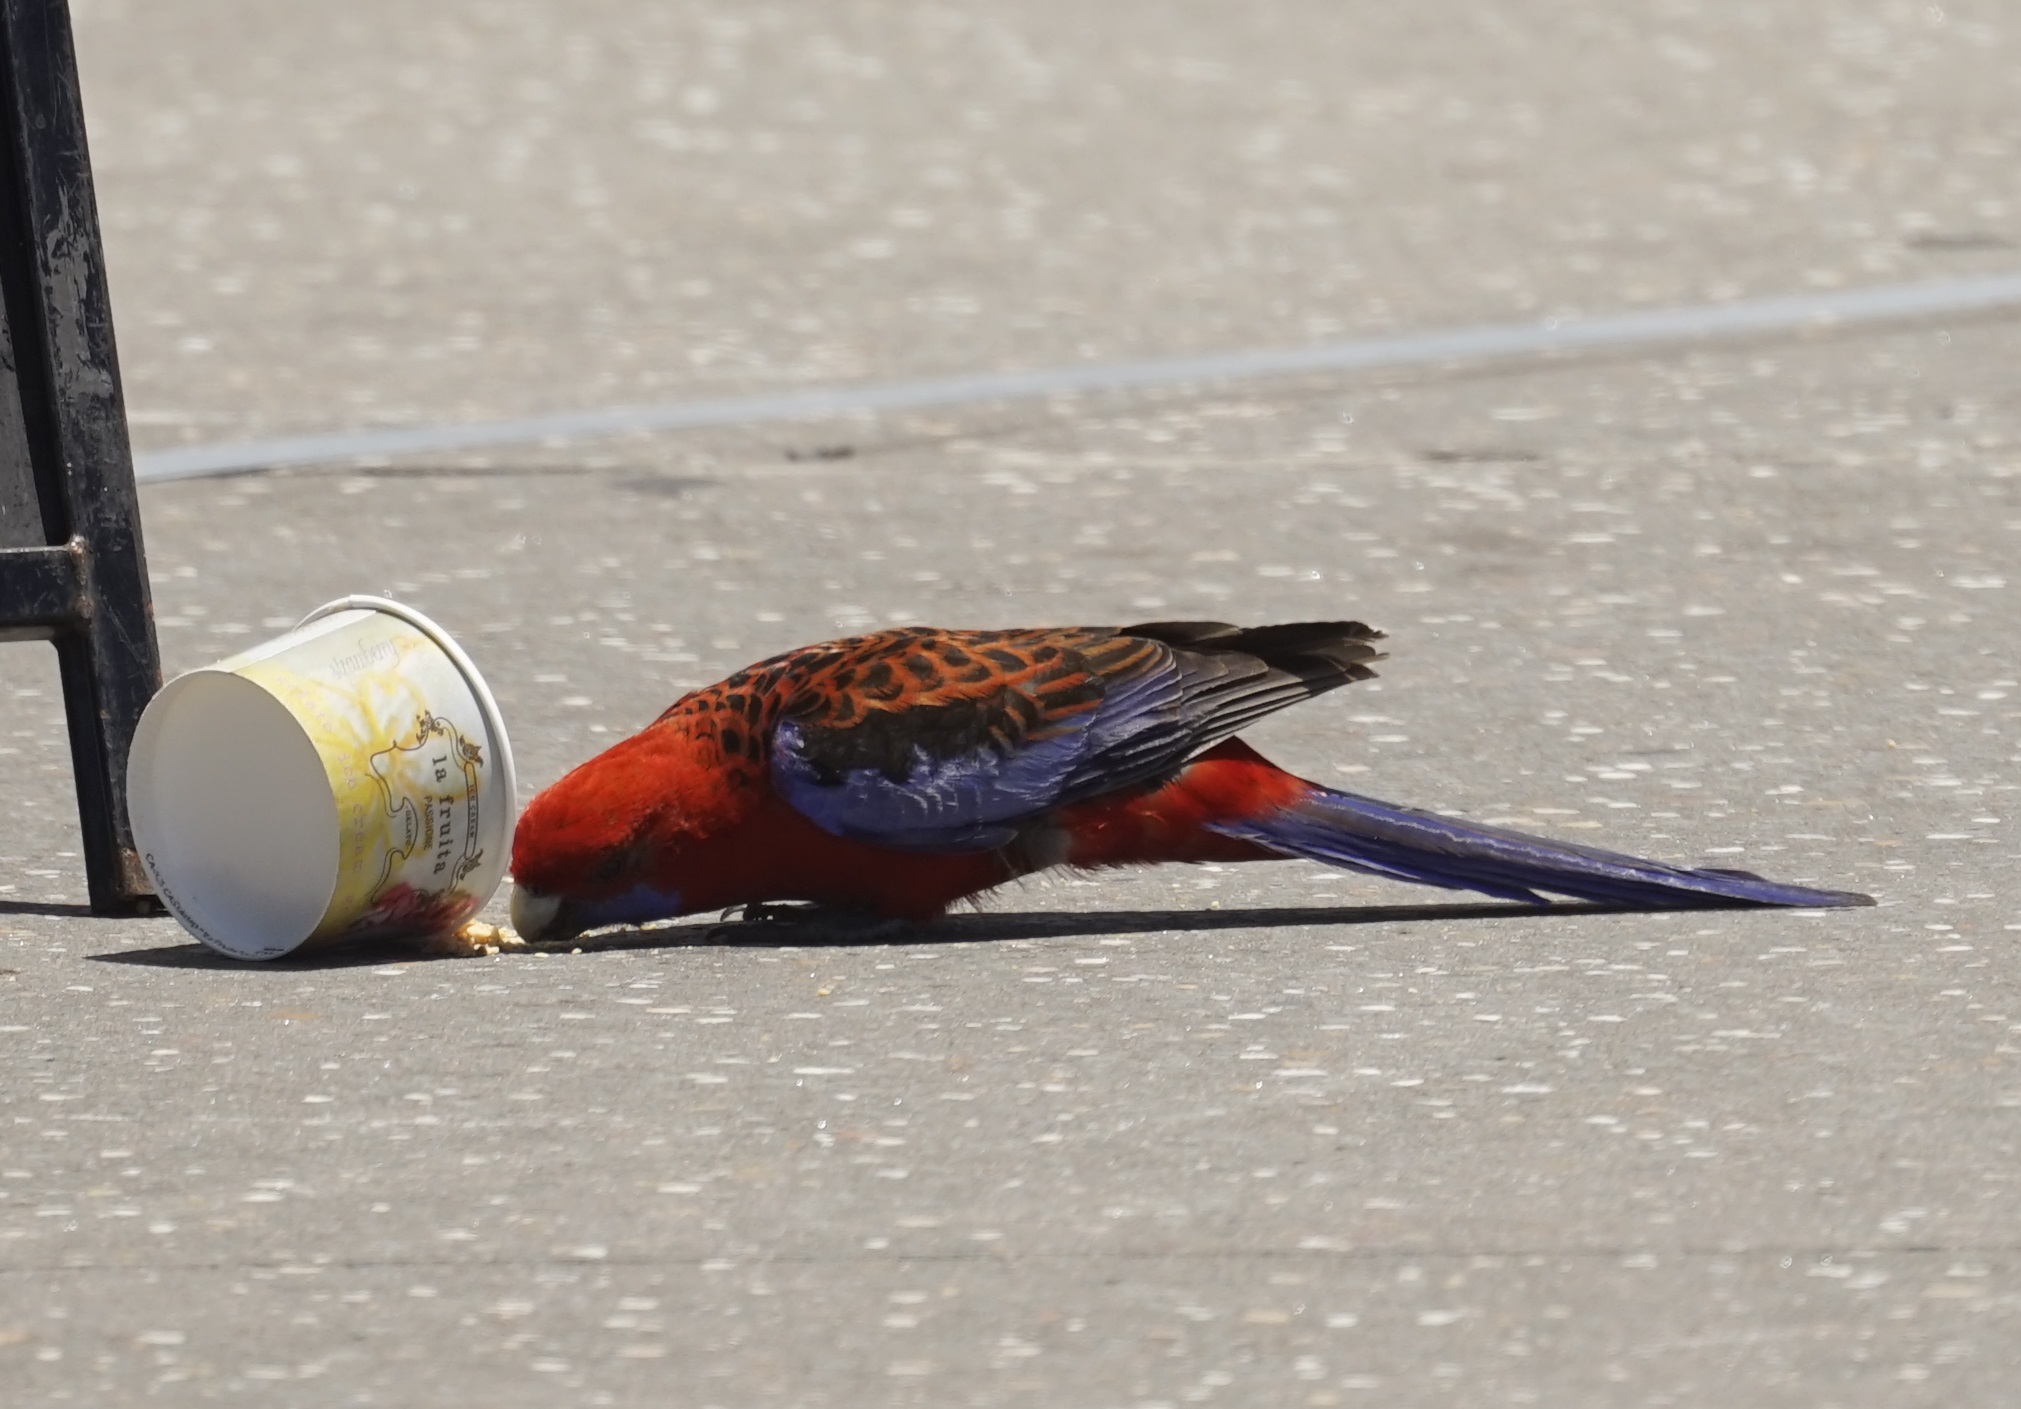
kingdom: Animalia
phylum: Chordata
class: Aves
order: Psittaciformes
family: Psittacidae
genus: Platycercus
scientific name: Platycercus elegans
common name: Crimson rosella
